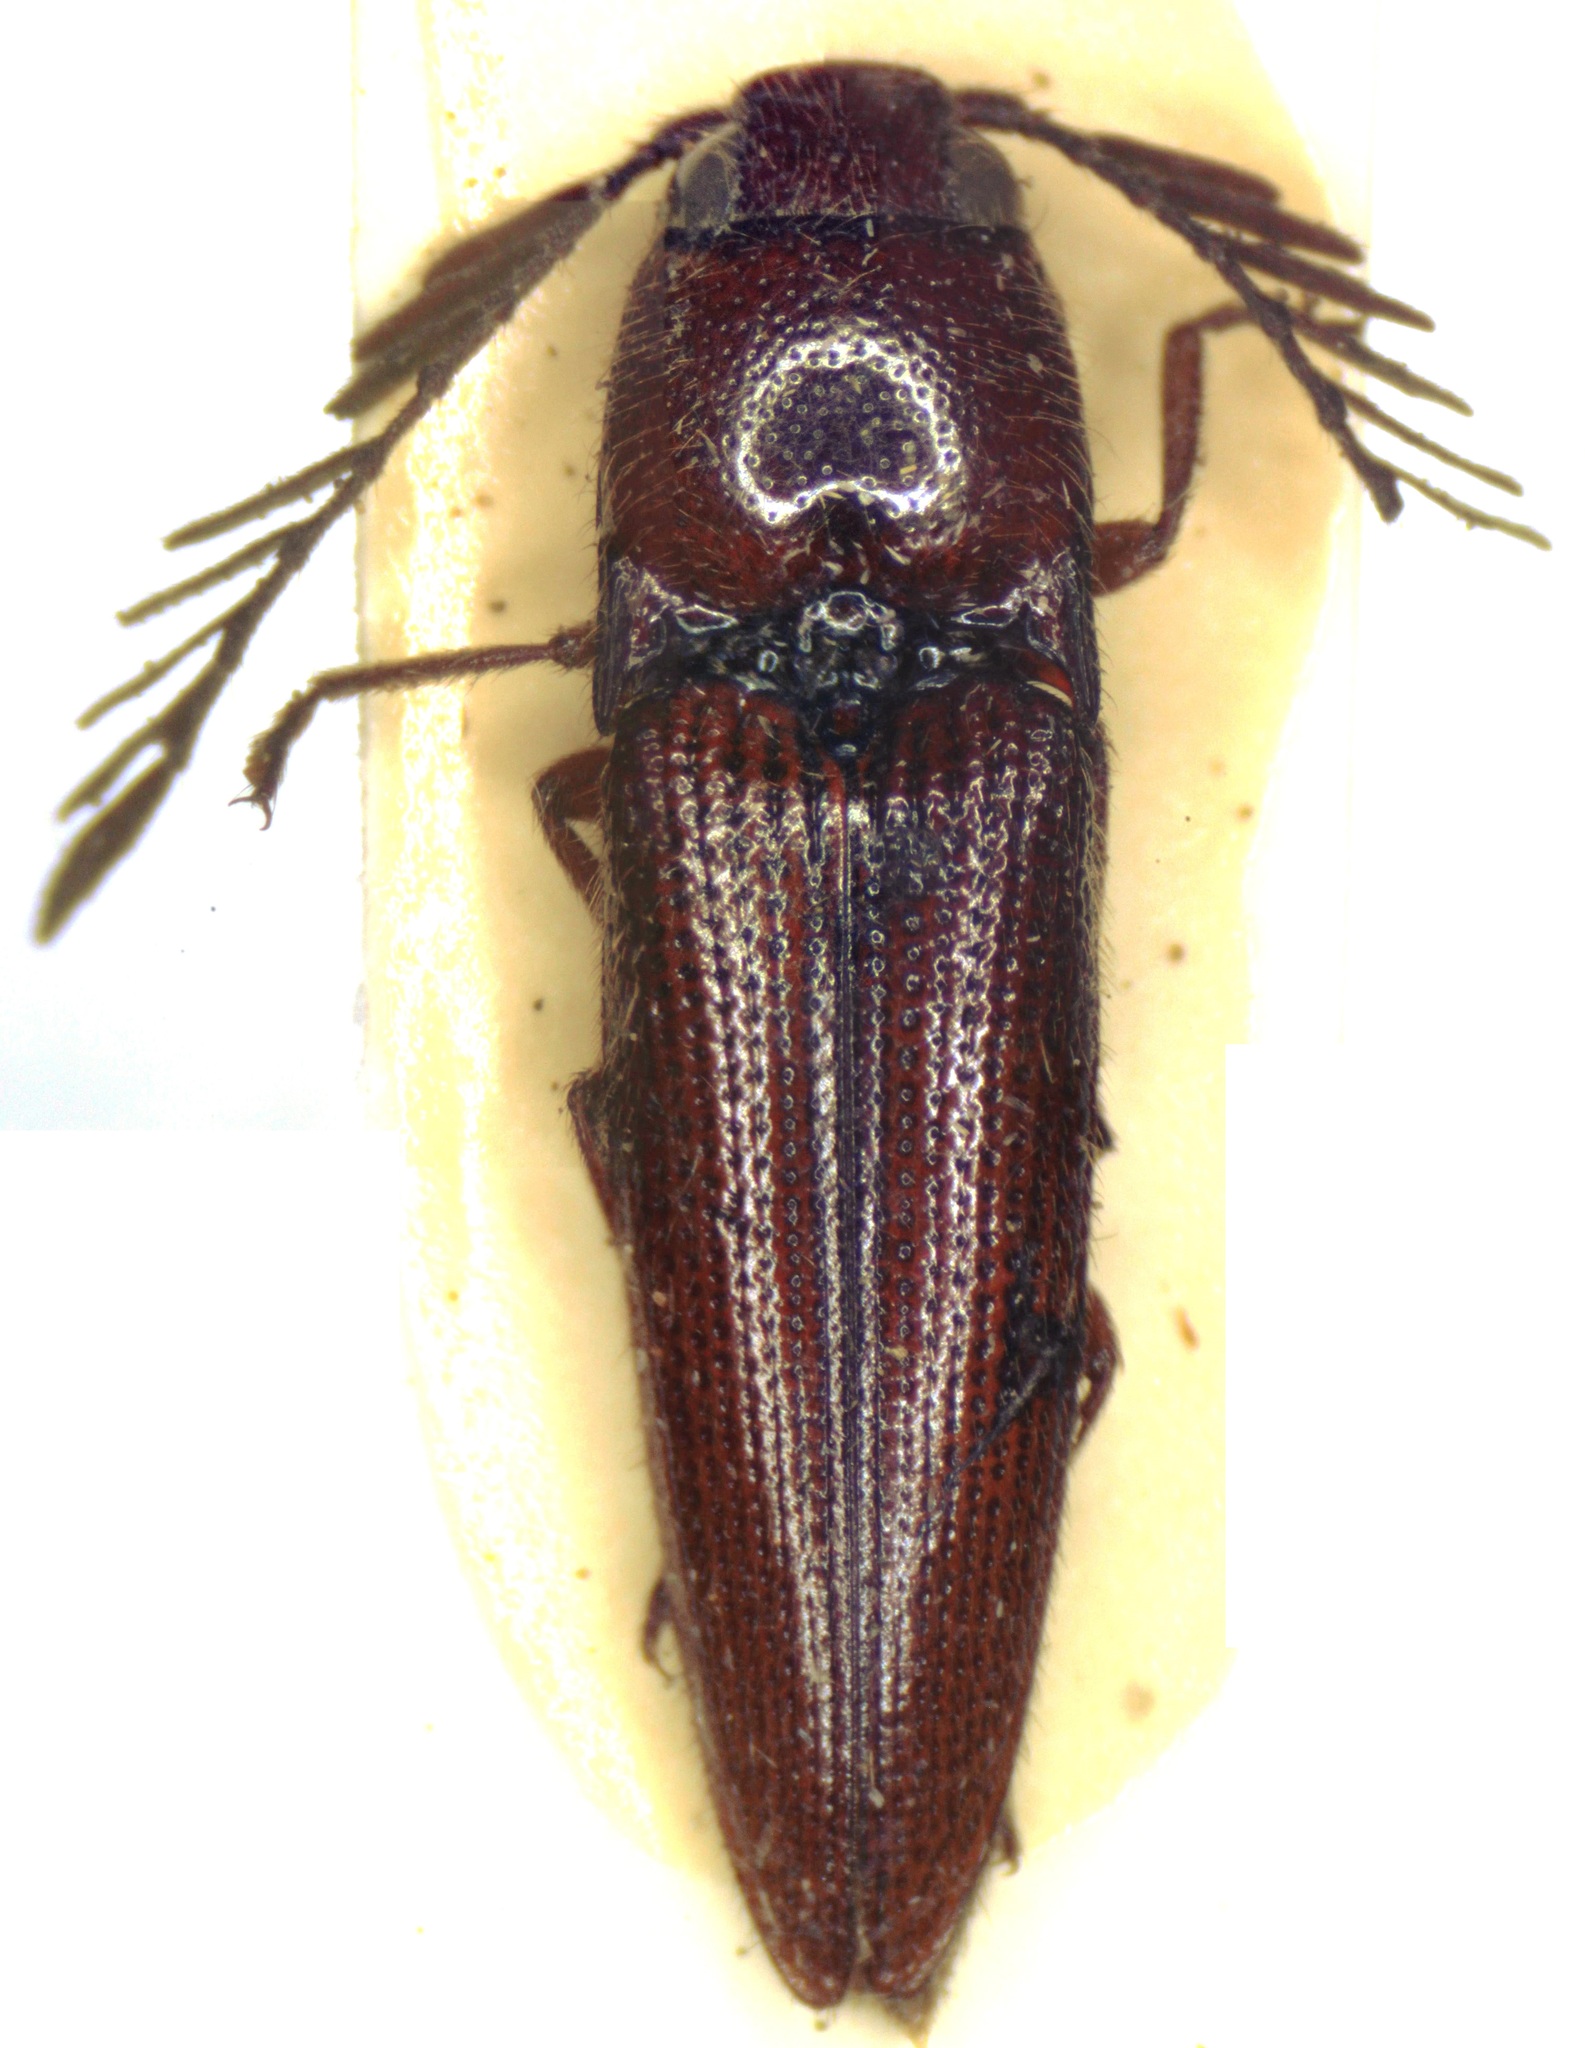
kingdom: Animalia
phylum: Arthropoda
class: Insecta
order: Coleoptera
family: Elateridae
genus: Dicrepidius
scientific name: Dicrepidius palmatus
